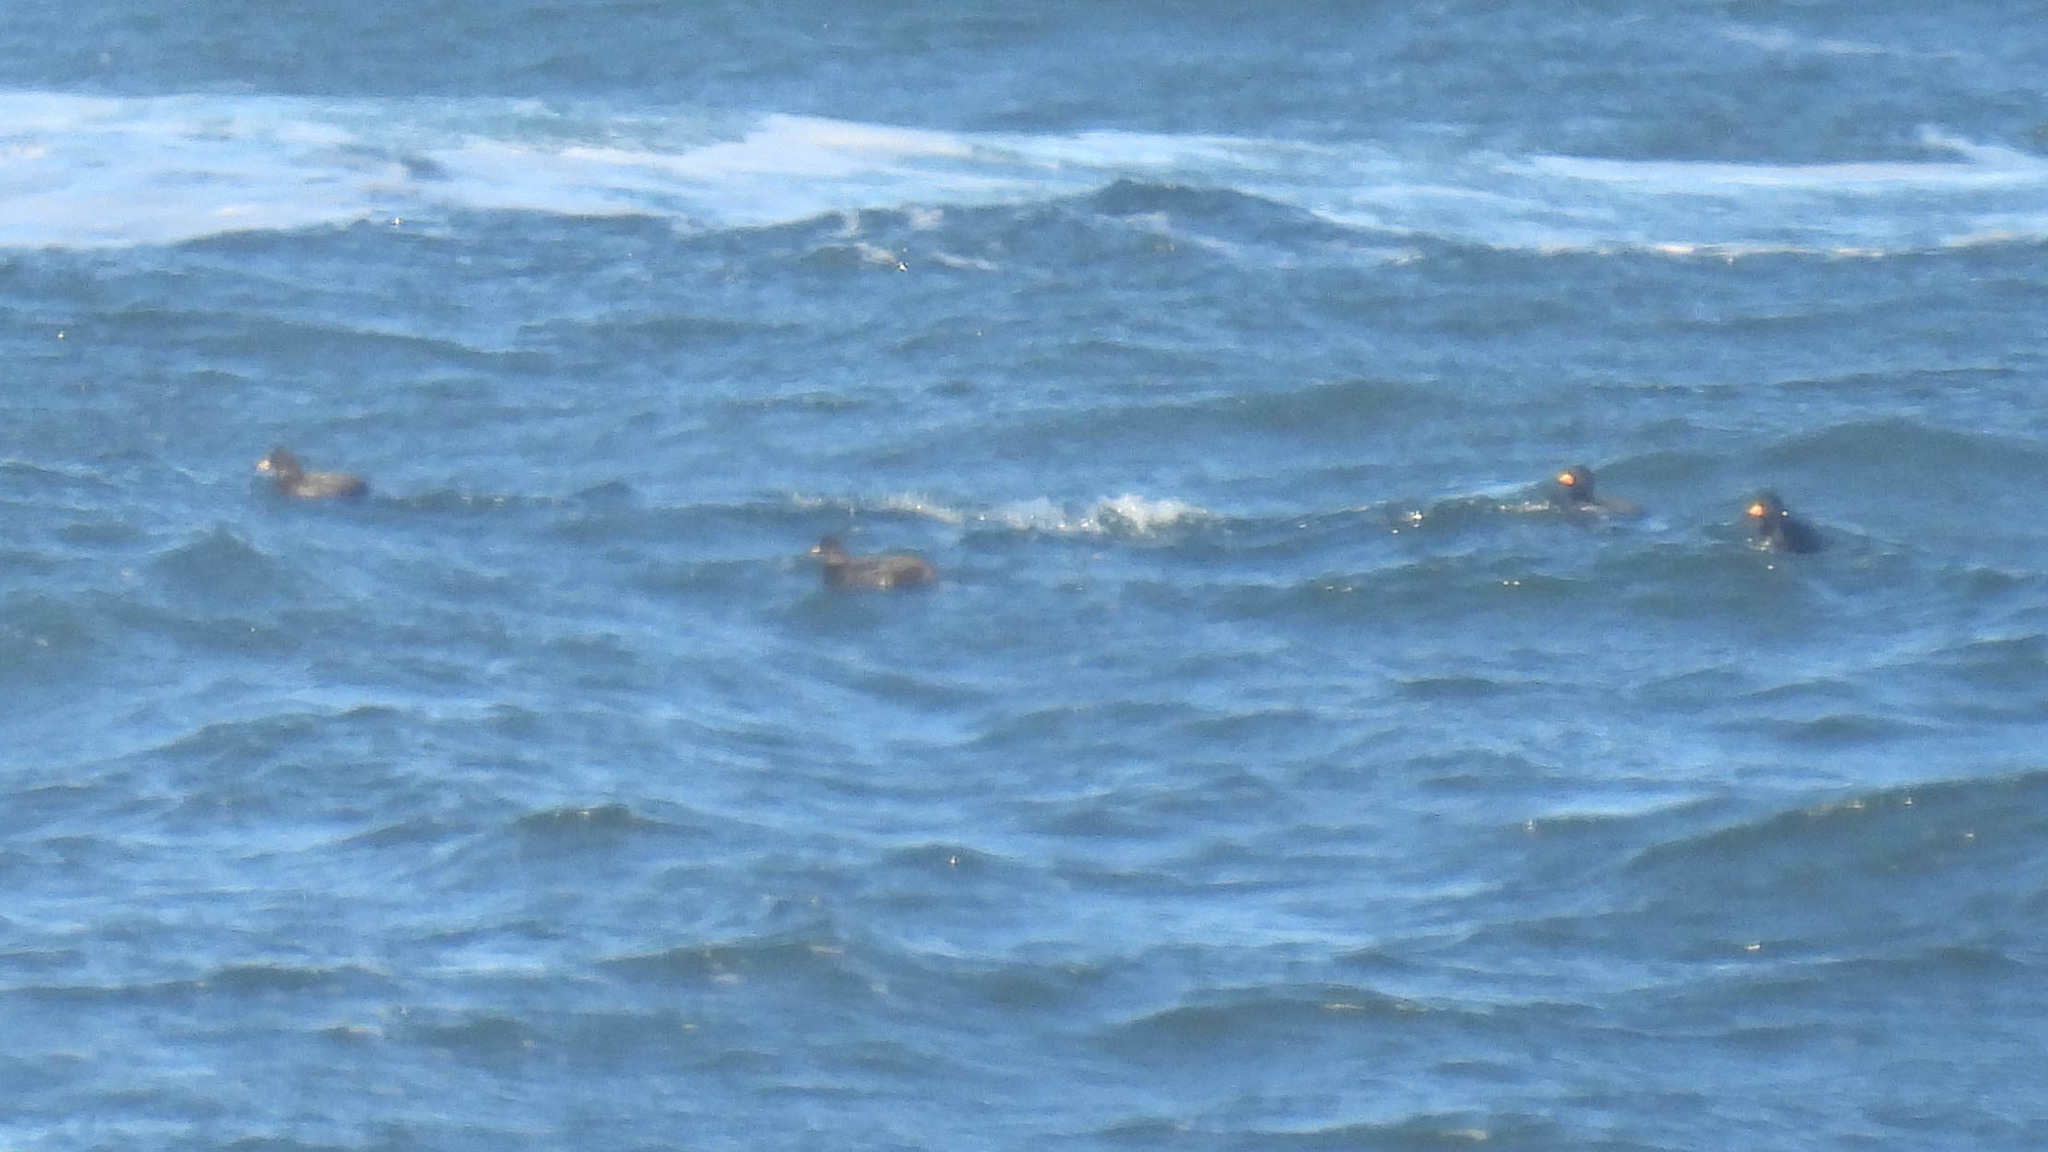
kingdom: Animalia
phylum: Chordata
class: Aves
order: Anseriformes
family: Anatidae
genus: Melanitta
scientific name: Melanitta americana
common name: Black scoter
